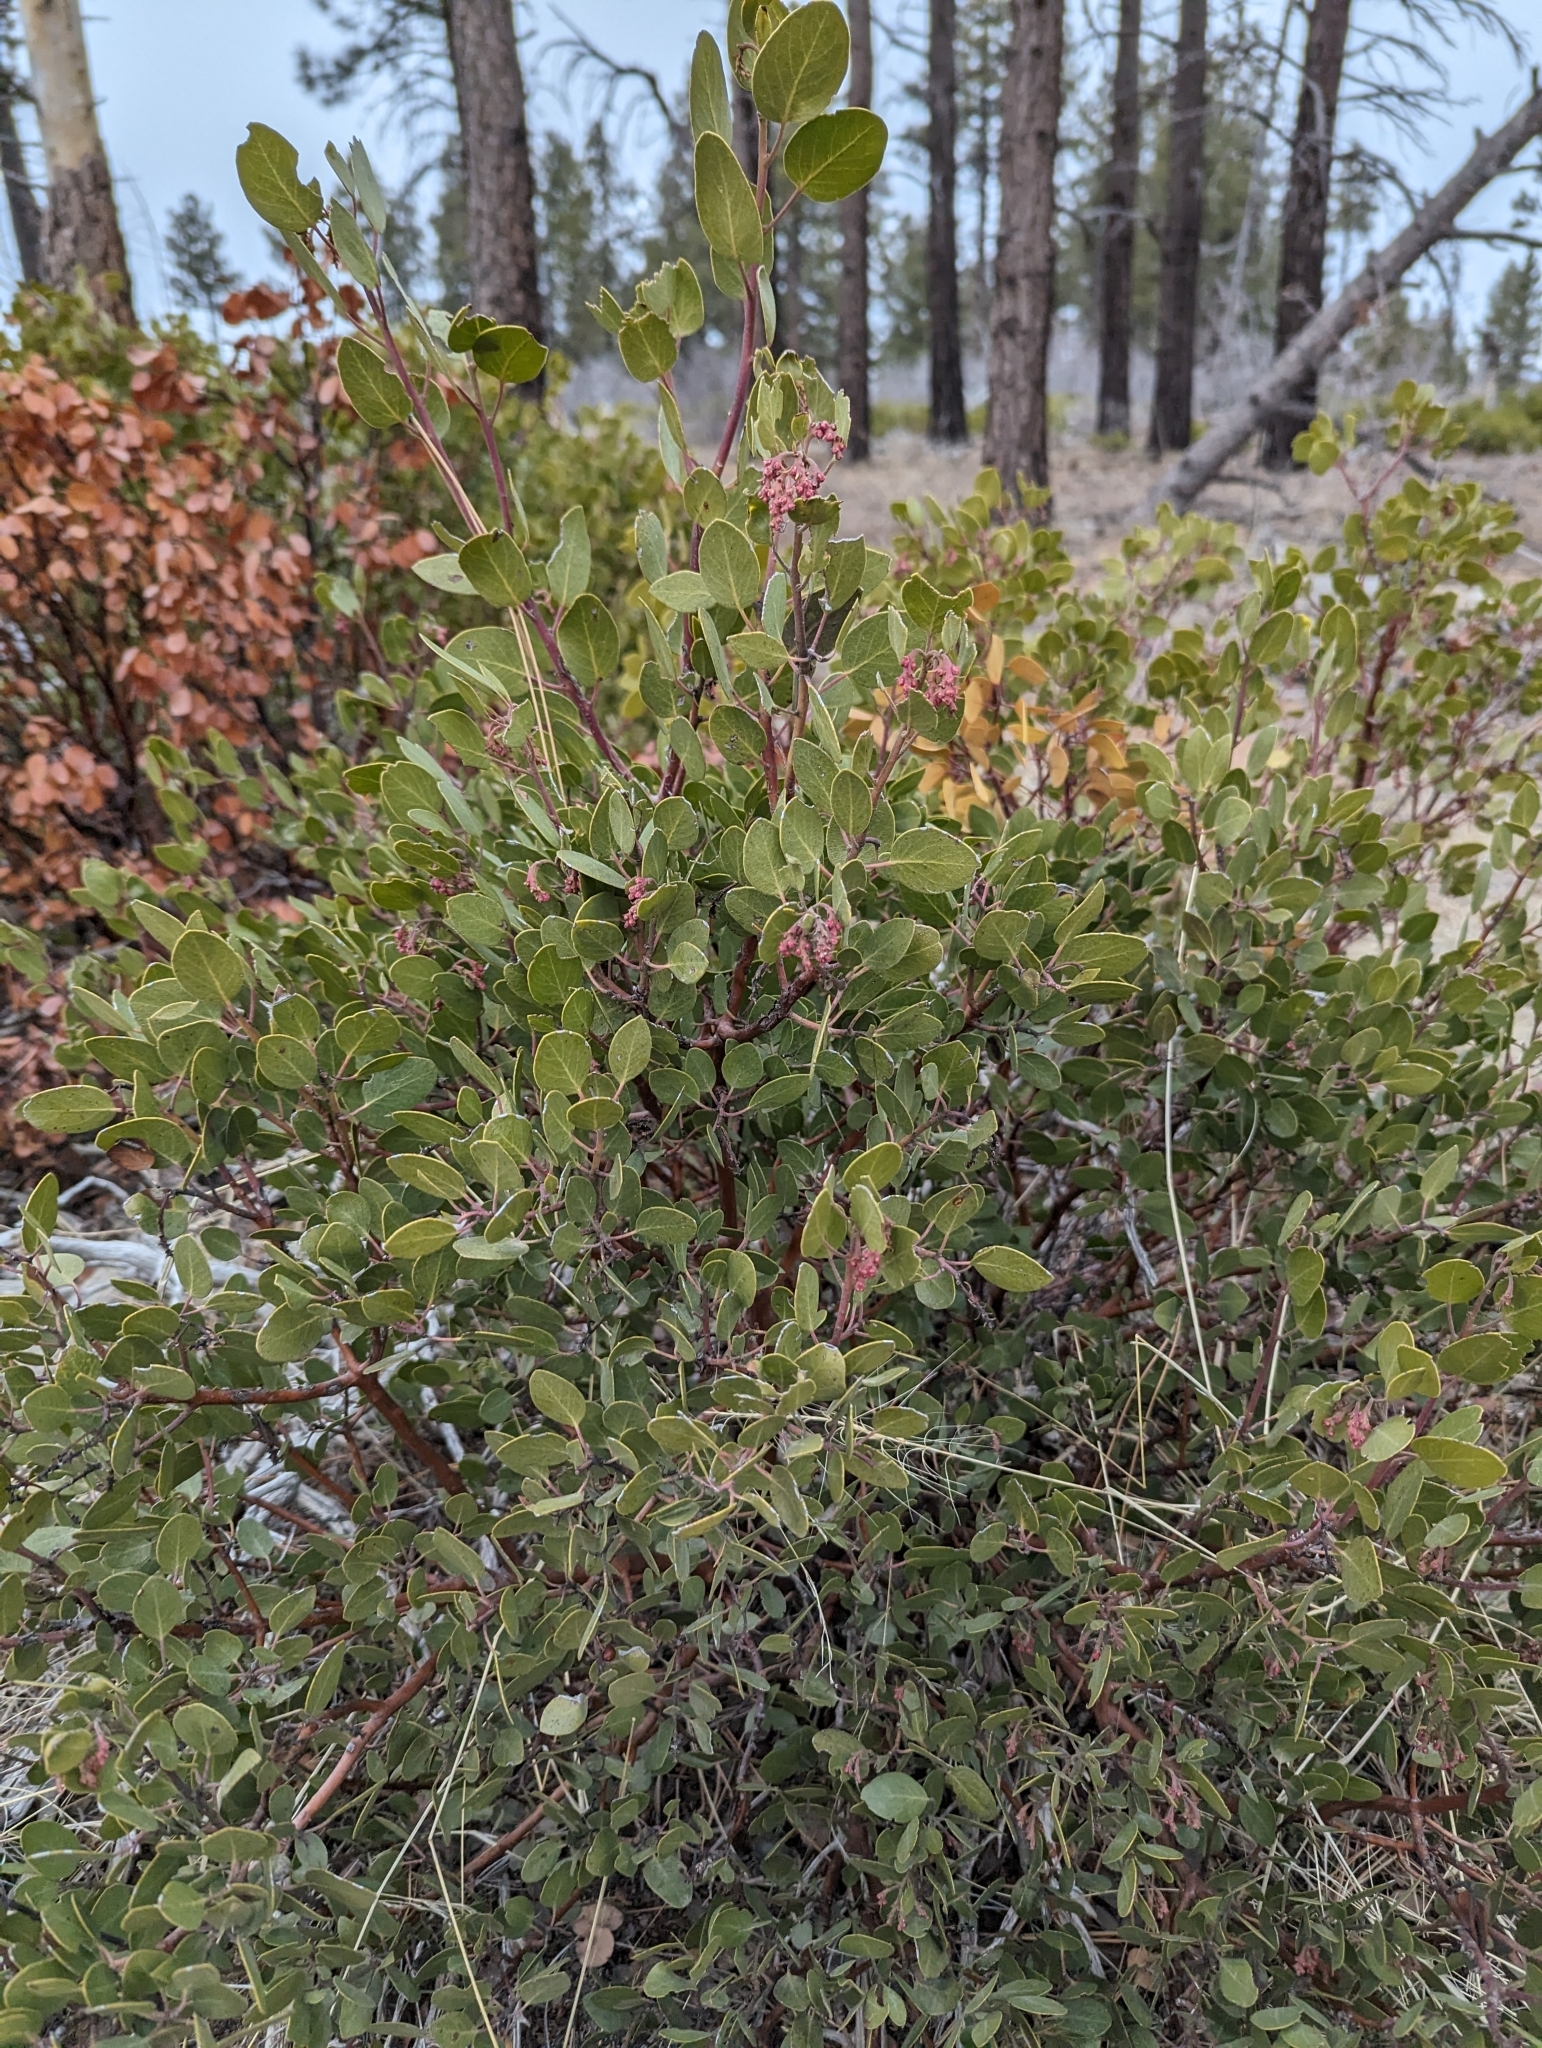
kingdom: Plantae
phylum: Tracheophyta
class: Magnoliopsida
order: Ericales
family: Ericaceae
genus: Arctostaphylos
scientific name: Arctostaphylos patula
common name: Green-leaf manzanita
